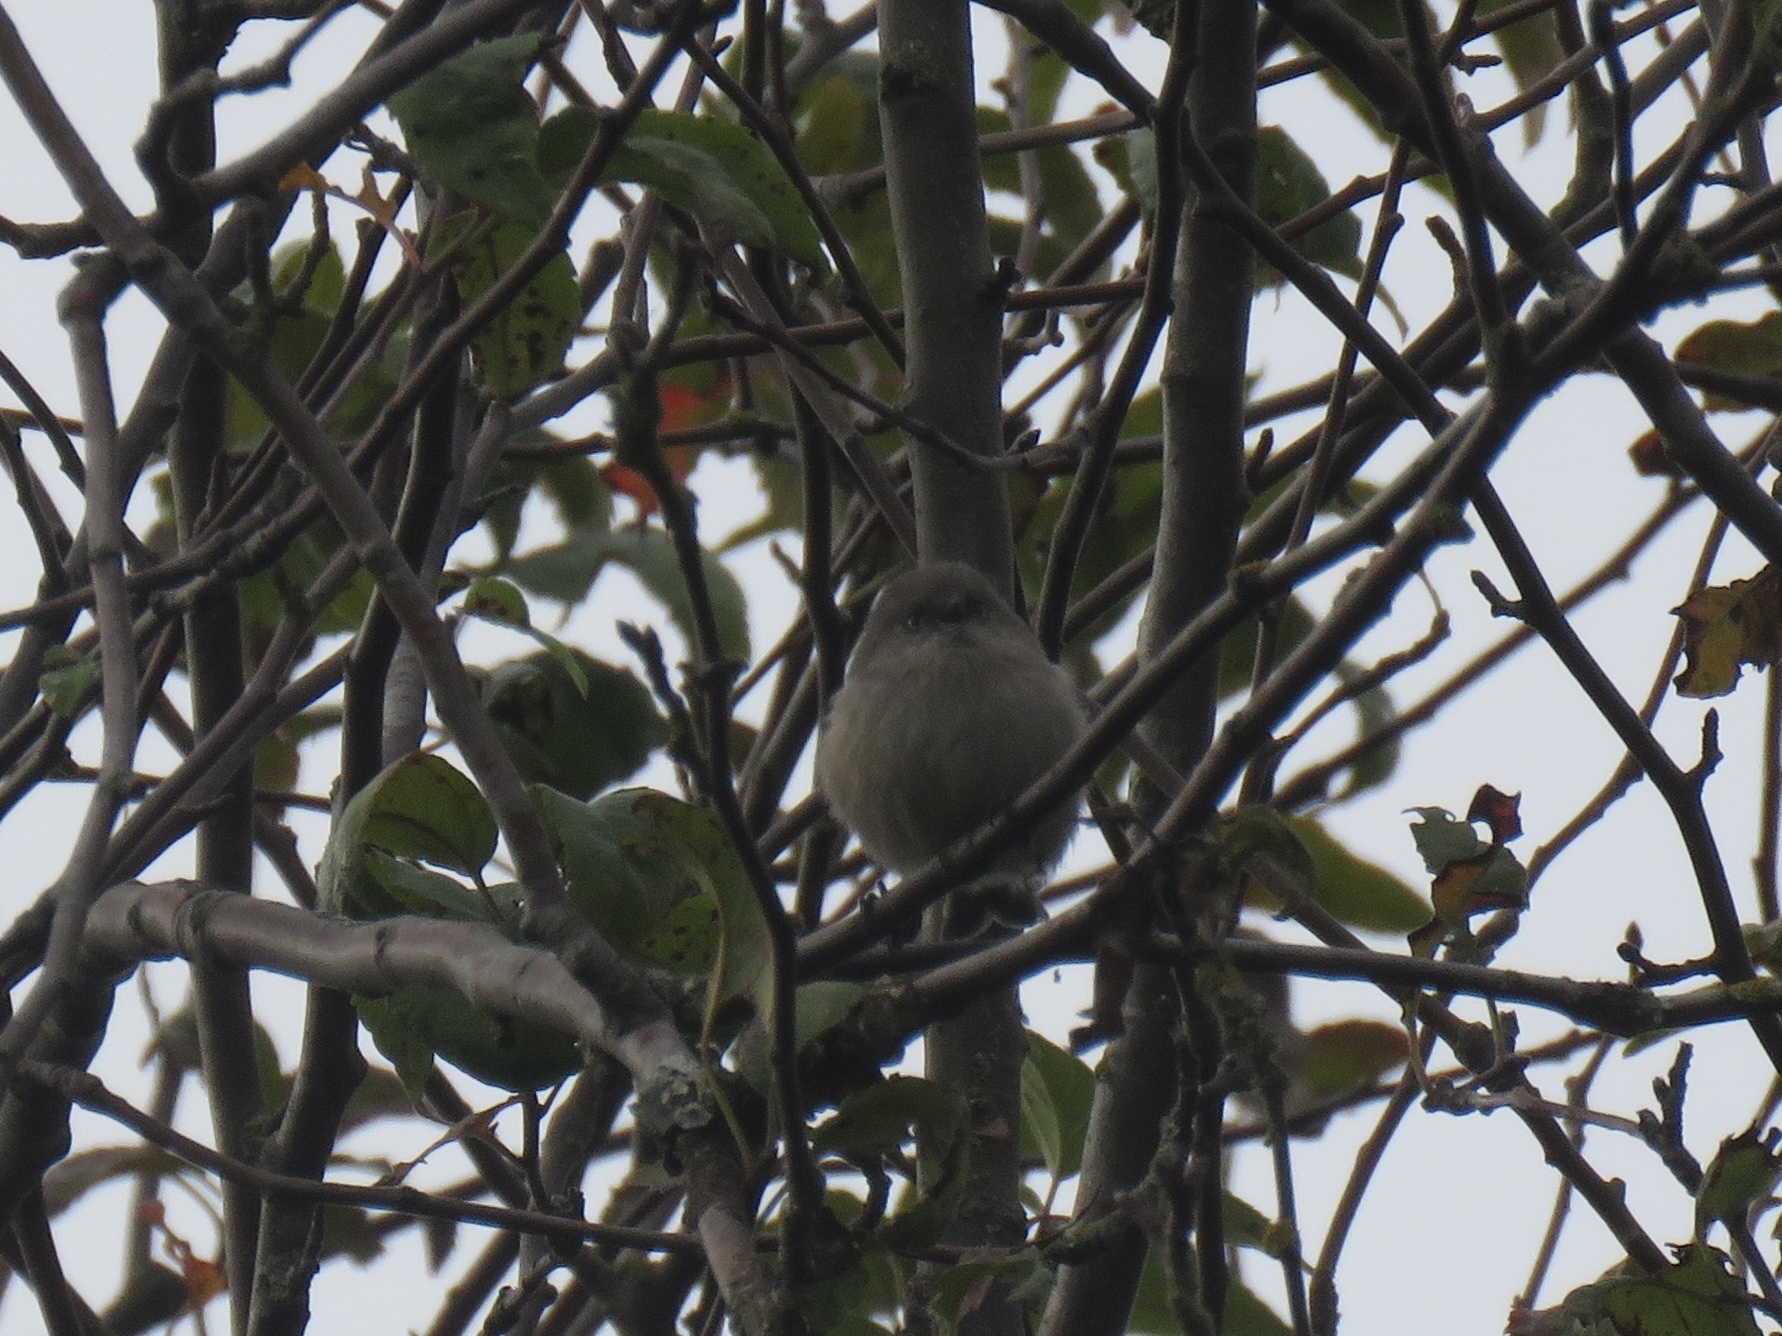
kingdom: Animalia
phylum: Chordata
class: Aves
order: Passeriformes
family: Aegithalidae
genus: Psaltriparus
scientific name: Psaltriparus minimus
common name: American bushtit
